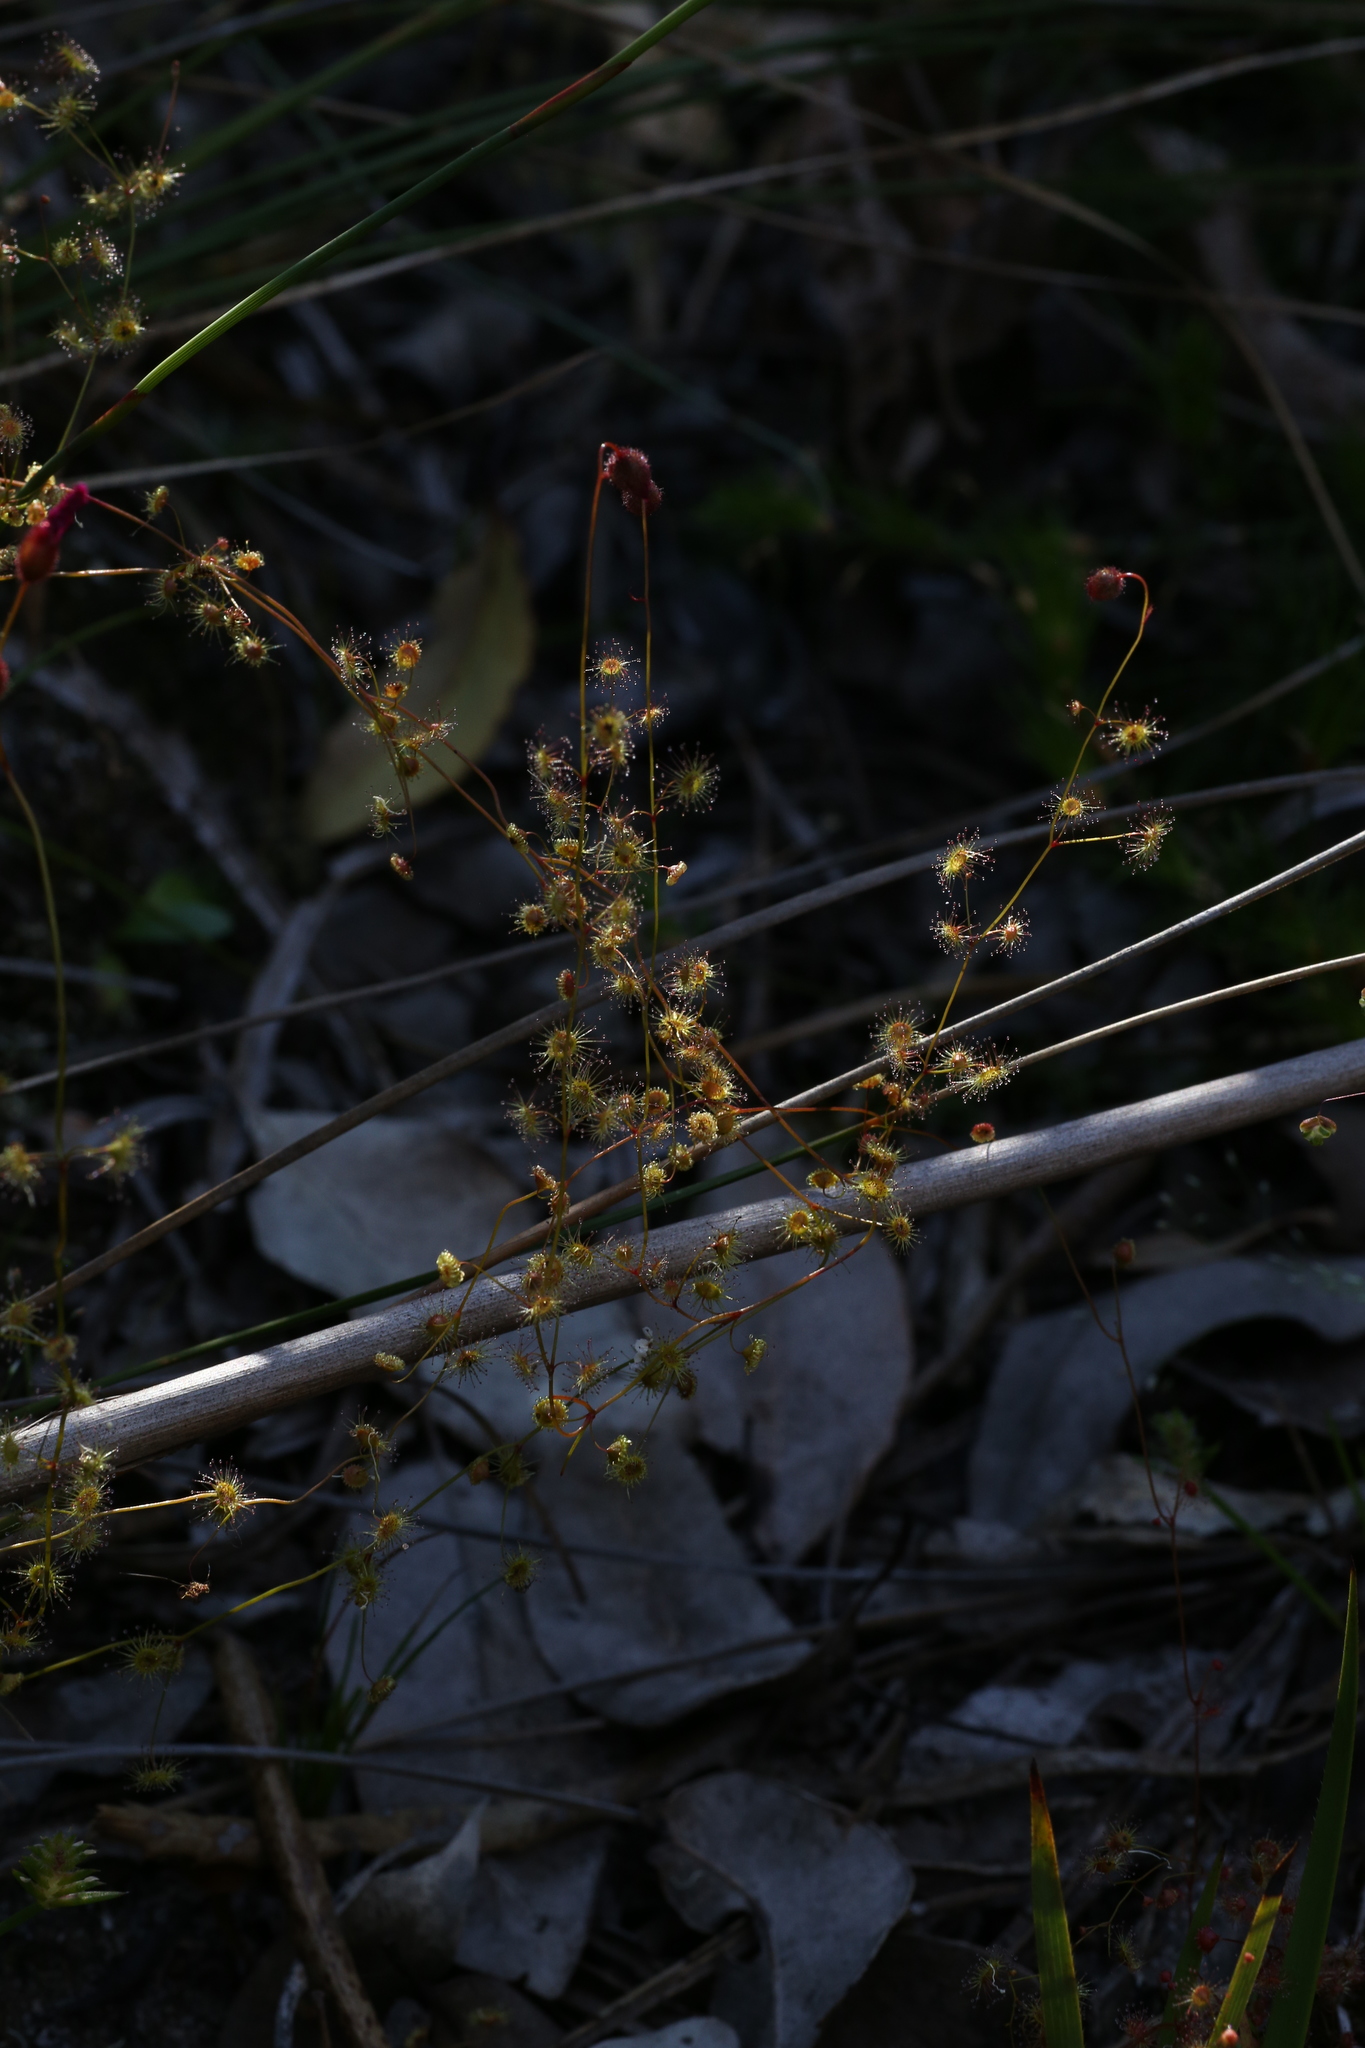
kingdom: Plantae
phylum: Tracheophyta
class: Magnoliopsida
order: Caryophyllales
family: Droseraceae
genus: Drosera
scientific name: Drosera
